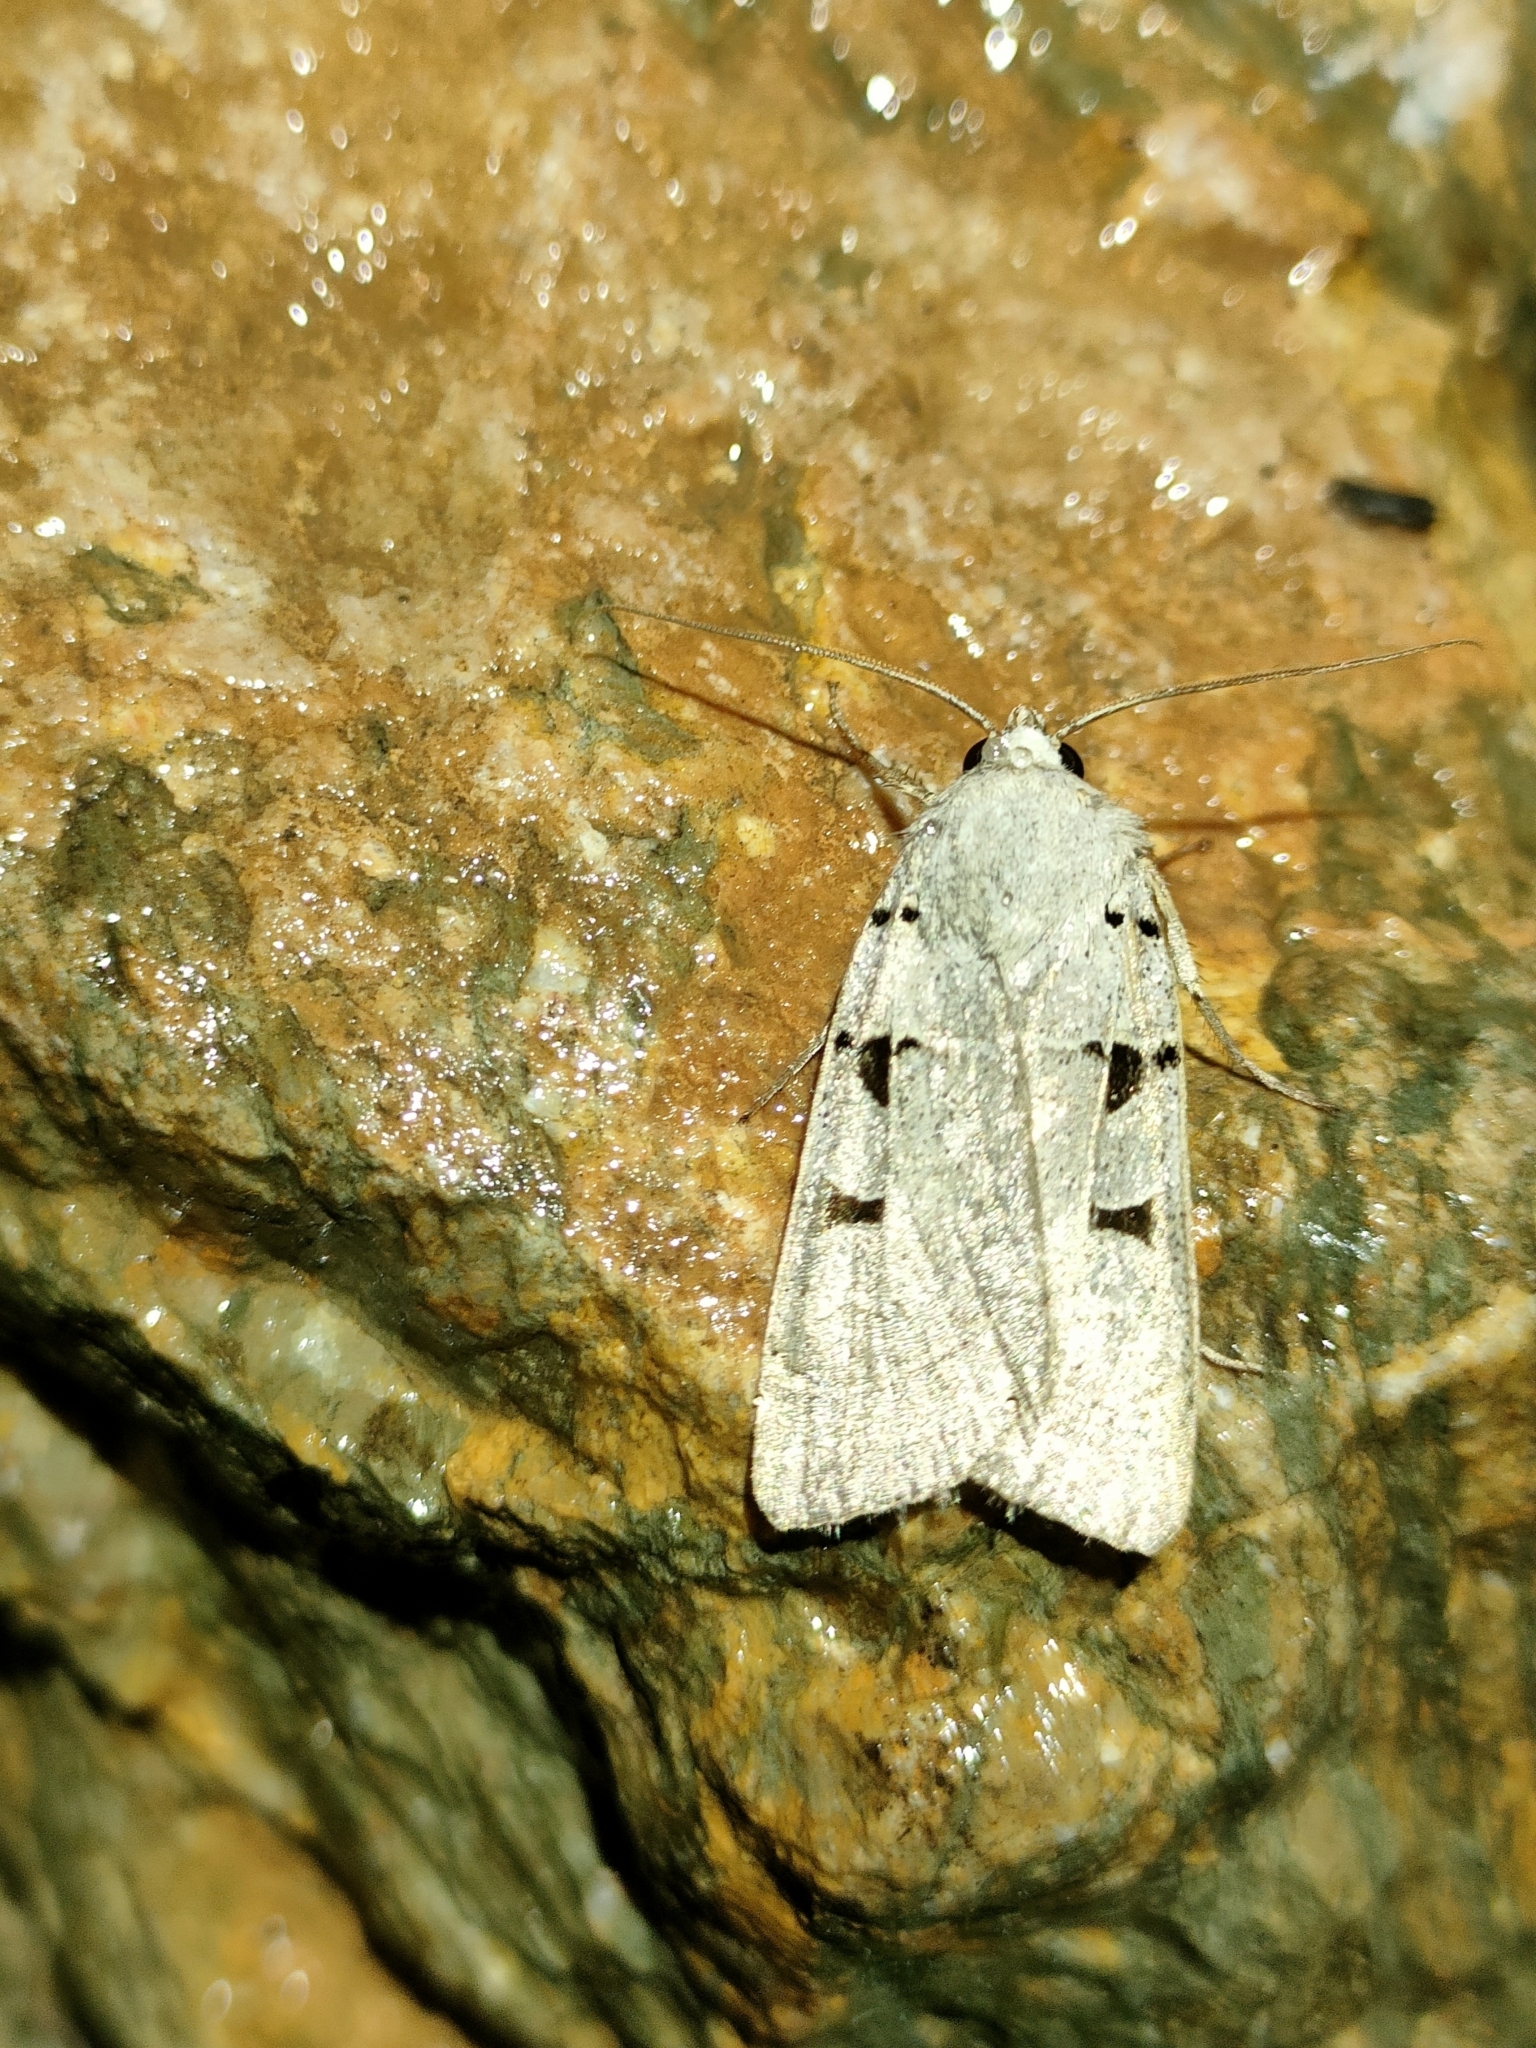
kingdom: Animalia
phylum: Arthropoda
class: Insecta
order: Lepidoptera
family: Noctuidae
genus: Eugnorisma
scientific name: Eugnorisma glareosa
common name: Autumnal rustic
